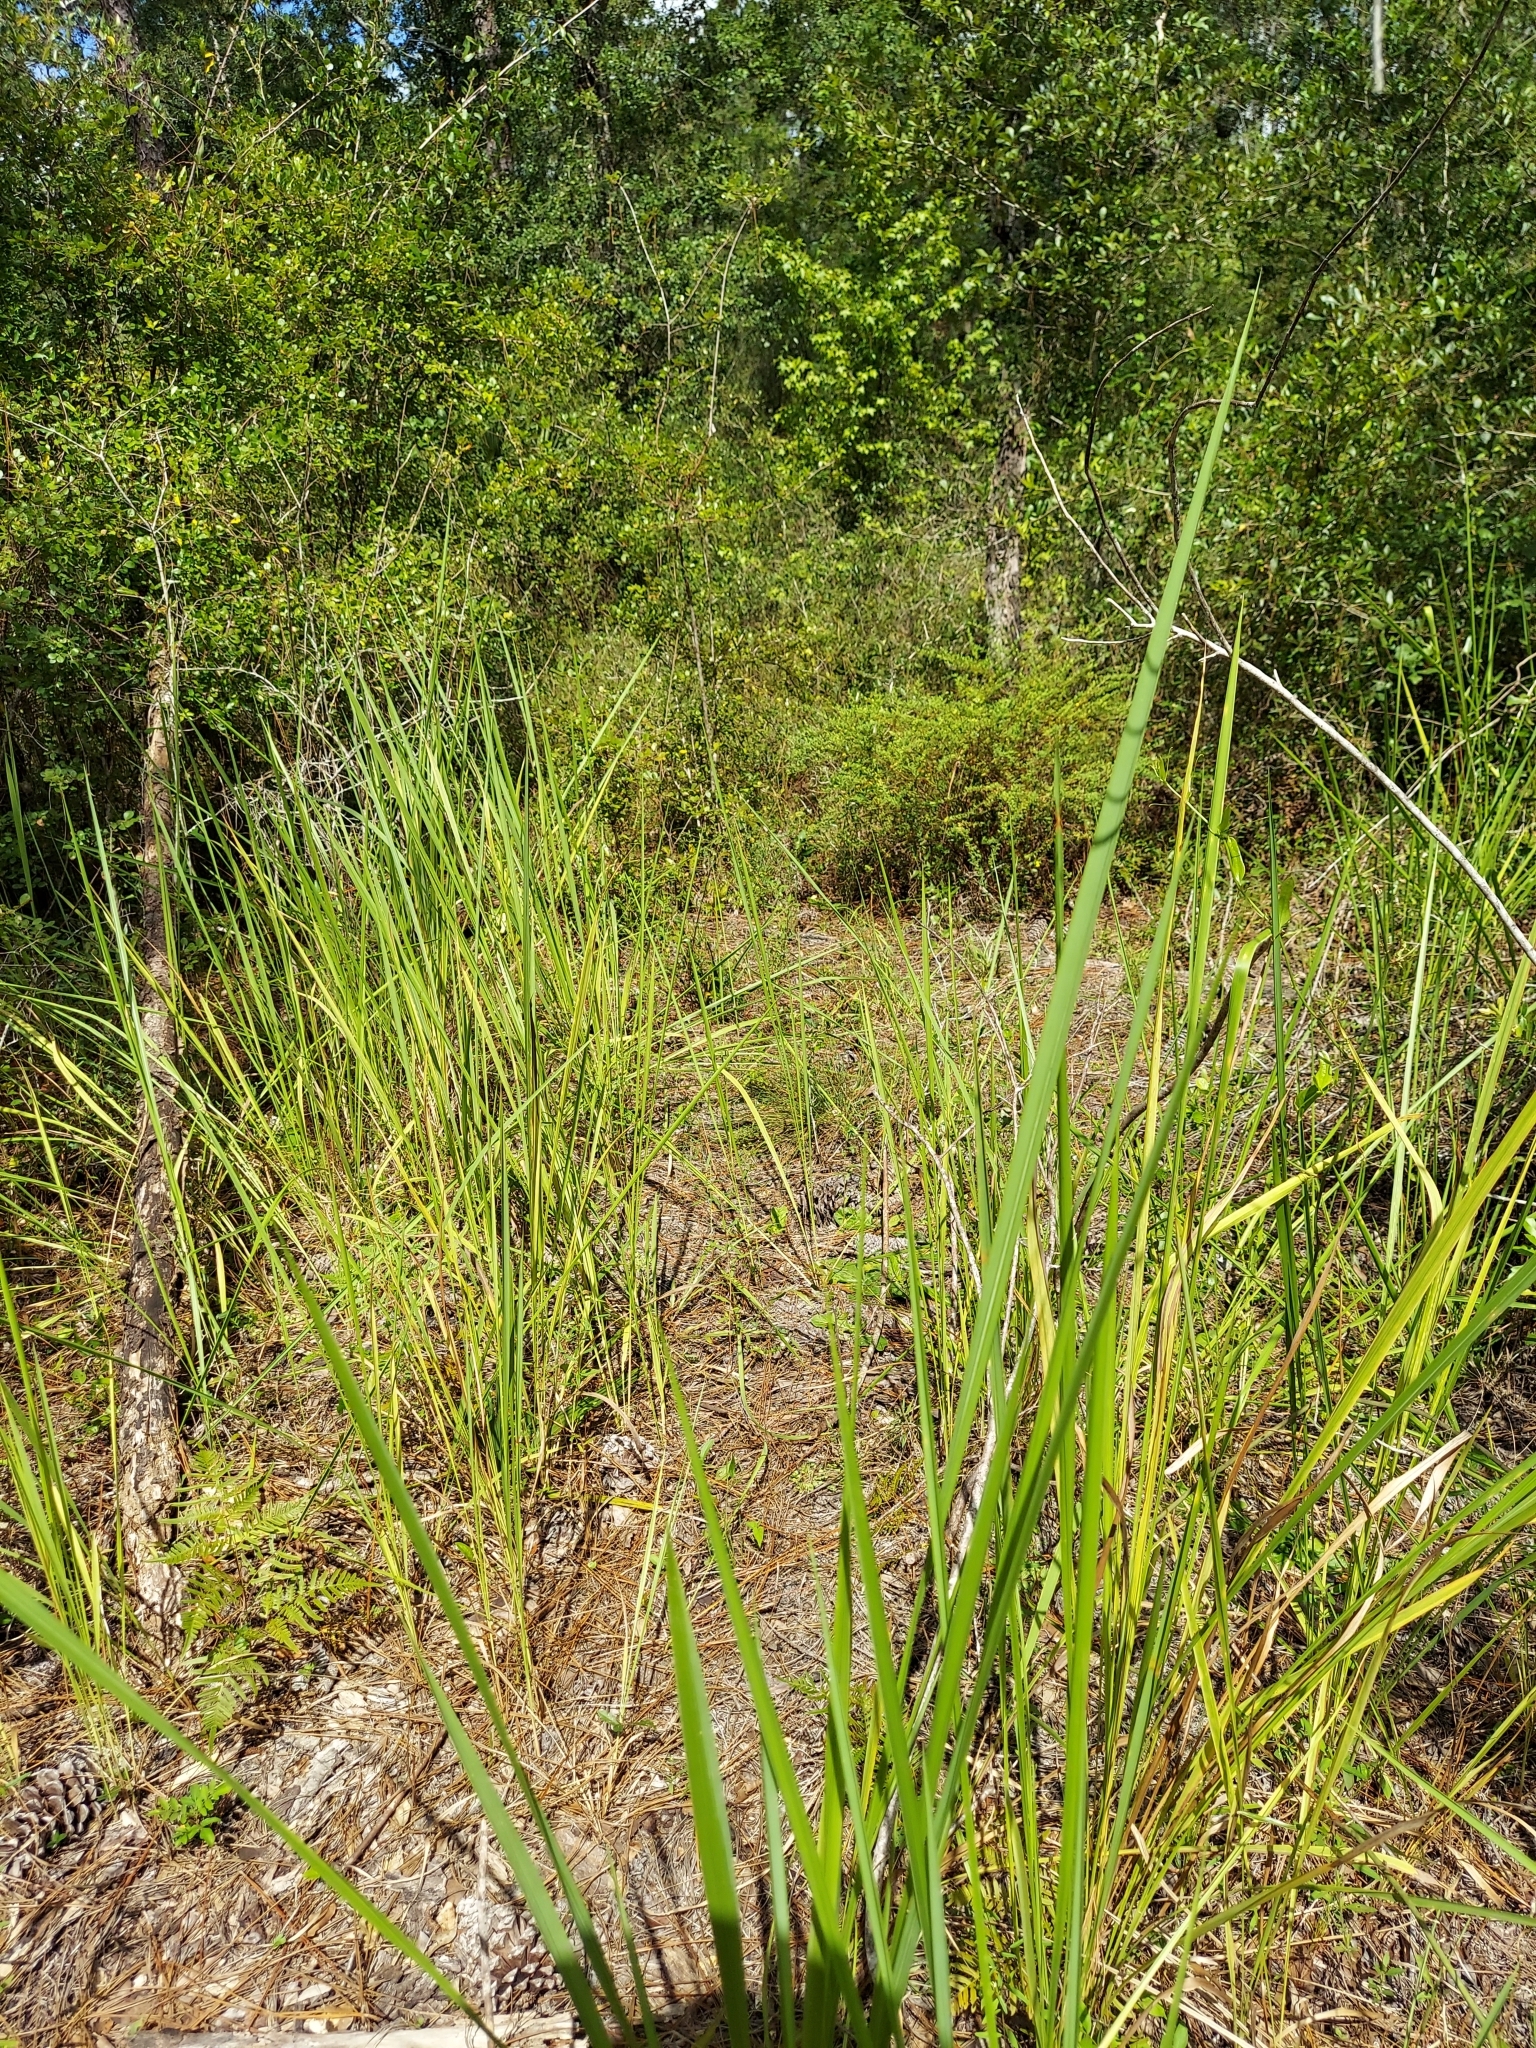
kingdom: Plantae
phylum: Tracheophyta
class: Liliopsida
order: Poales
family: Poaceae
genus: Imperata
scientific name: Imperata cylindrica
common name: Cogongrass
